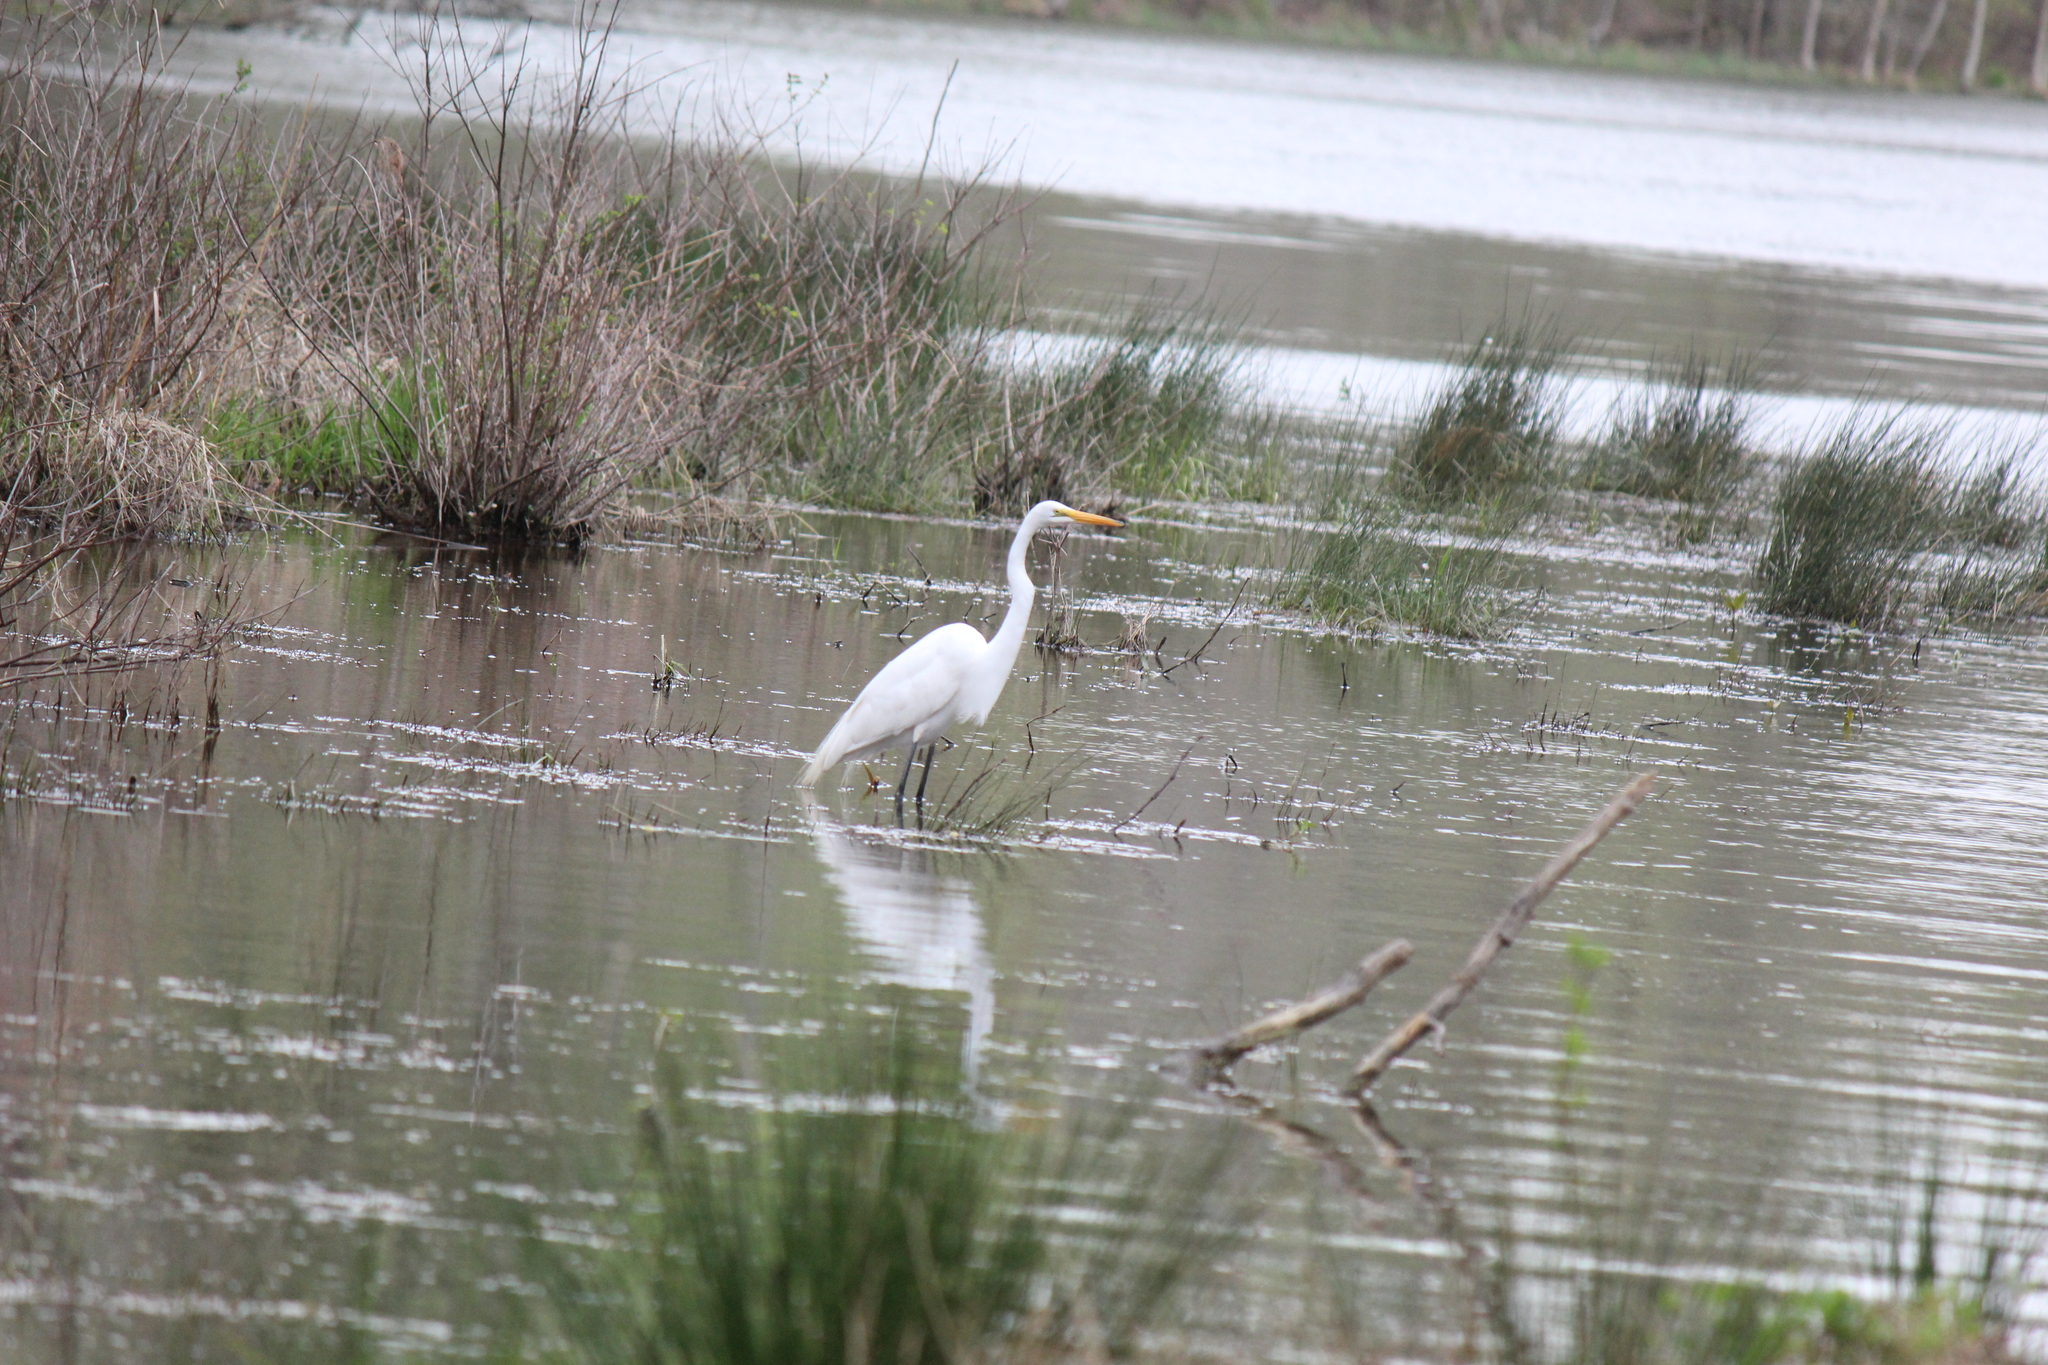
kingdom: Animalia
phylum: Chordata
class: Aves
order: Pelecaniformes
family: Ardeidae
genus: Ardea
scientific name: Ardea alba
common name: Great egret
